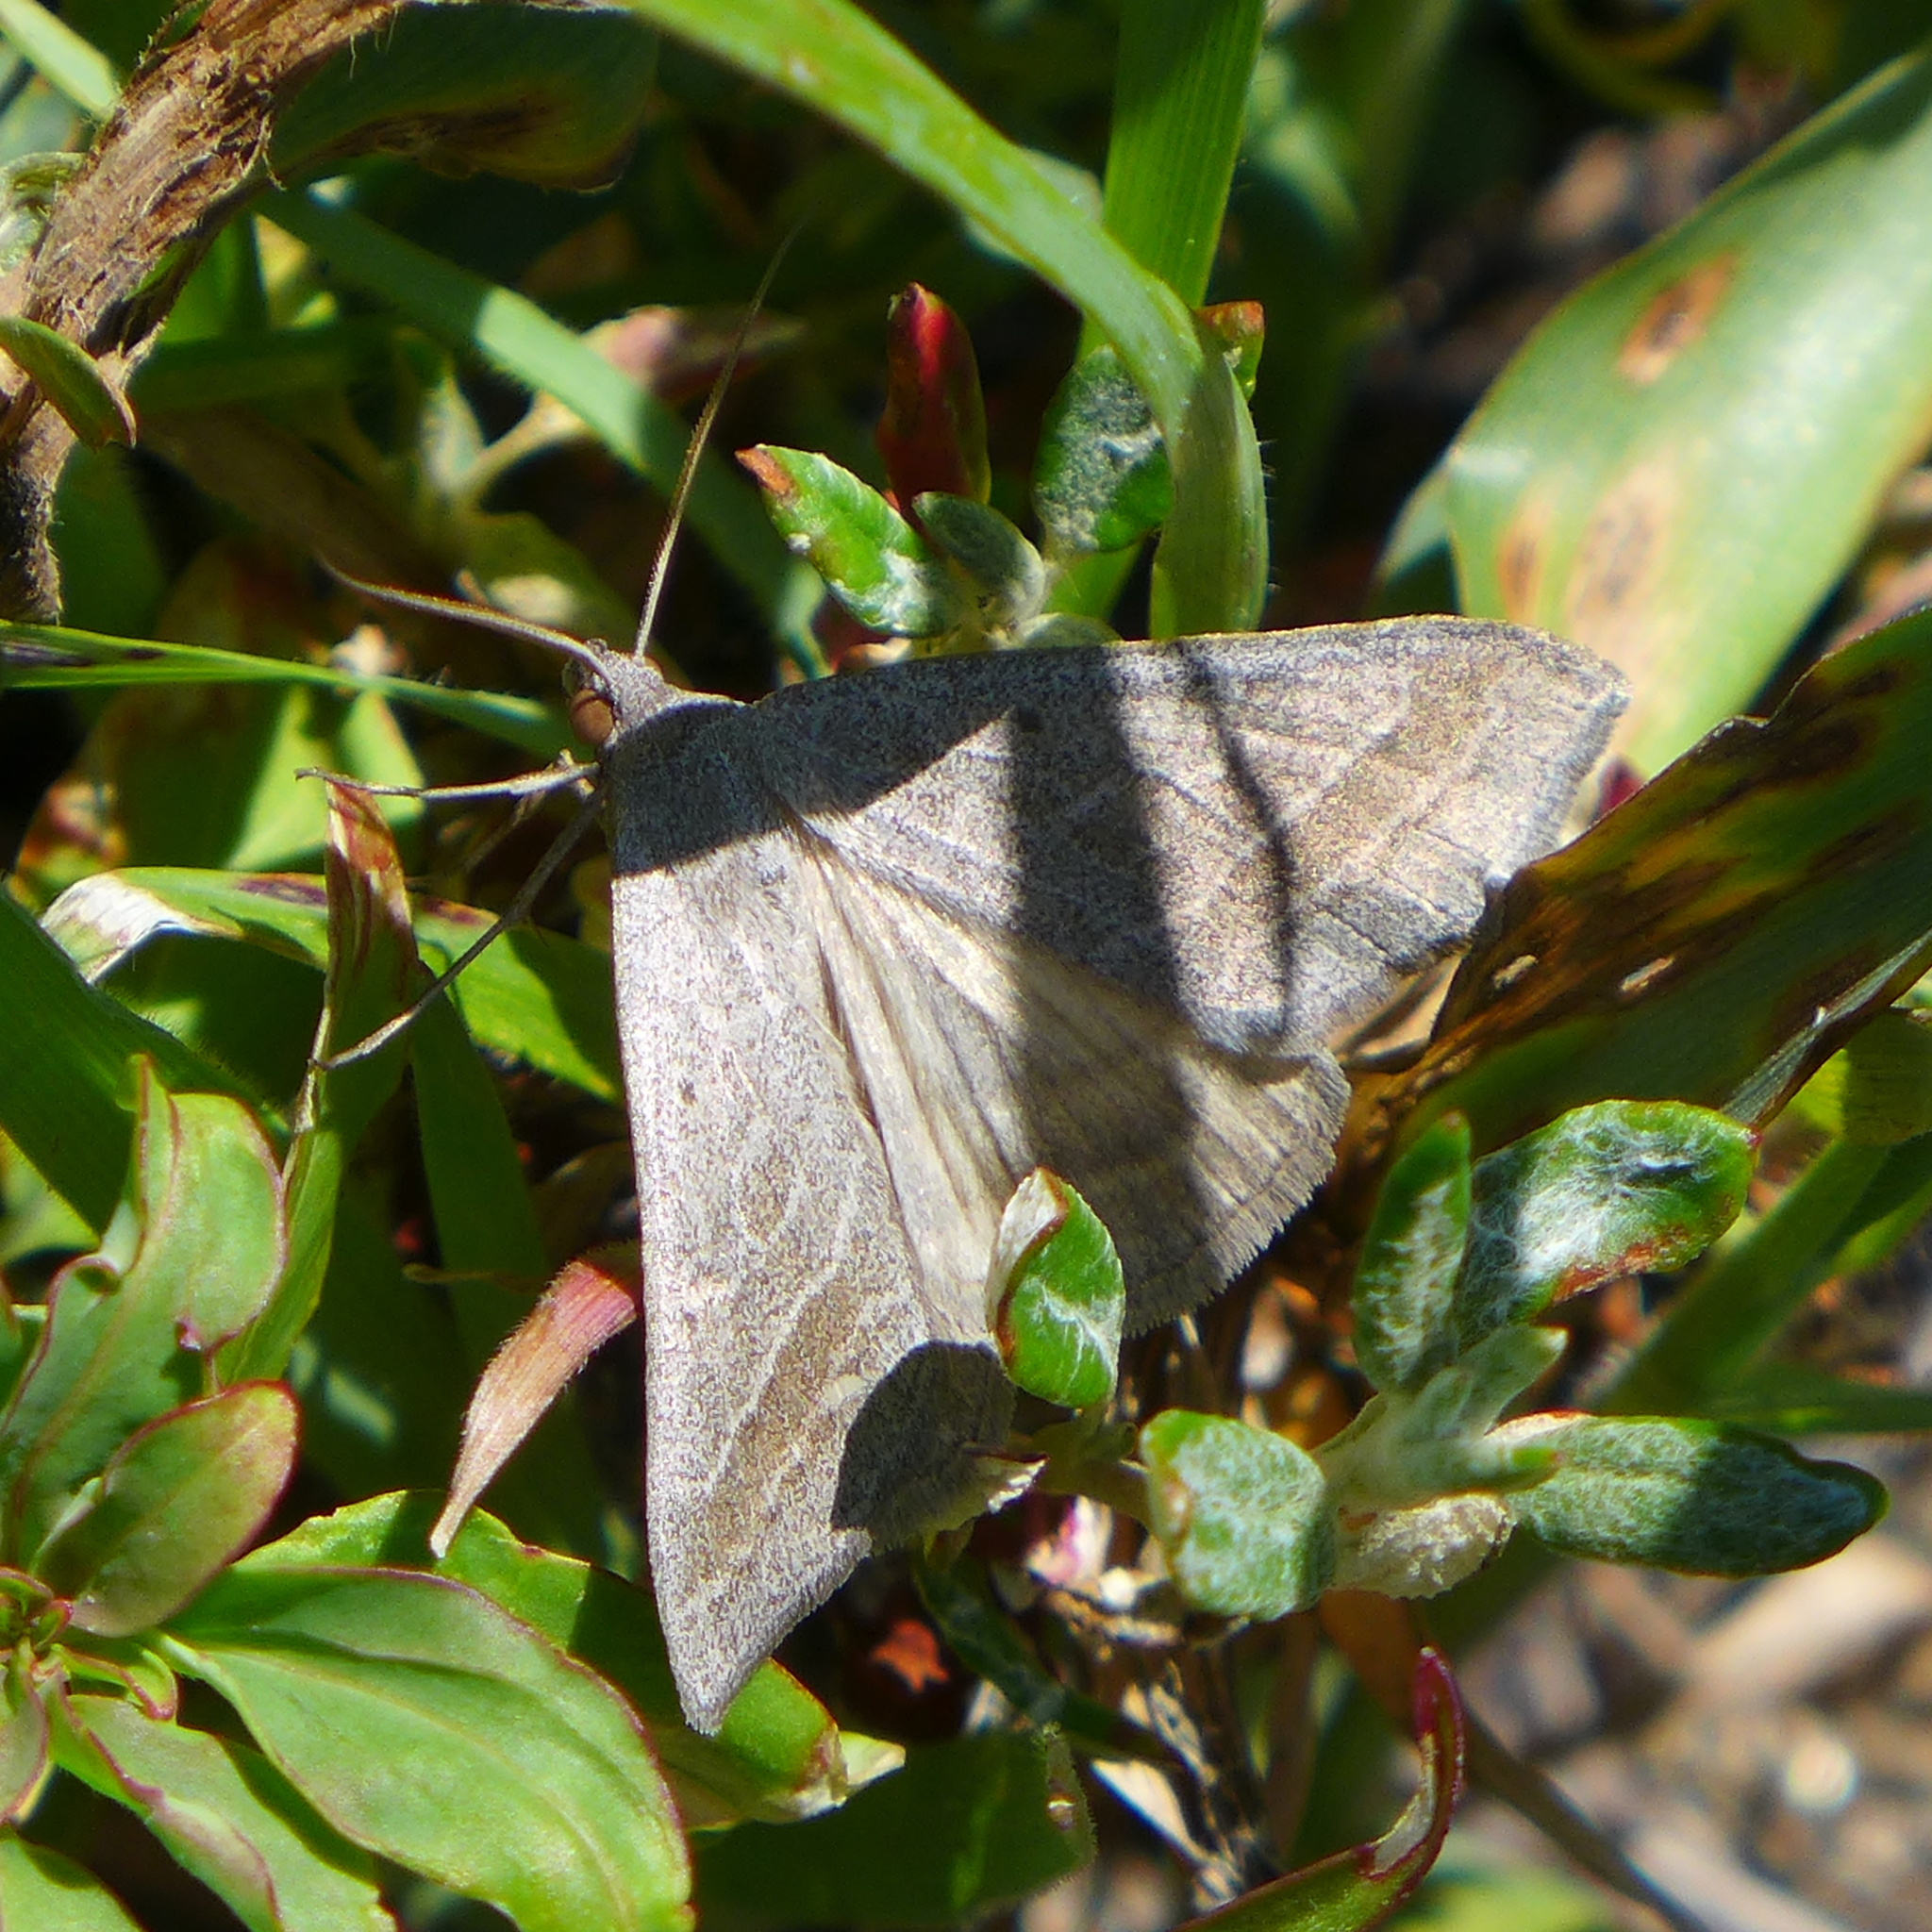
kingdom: Animalia
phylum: Arthropoda
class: Insecta
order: Lepidoptera
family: Erebidae
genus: Caenurgia
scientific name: Caenurgia togataria
